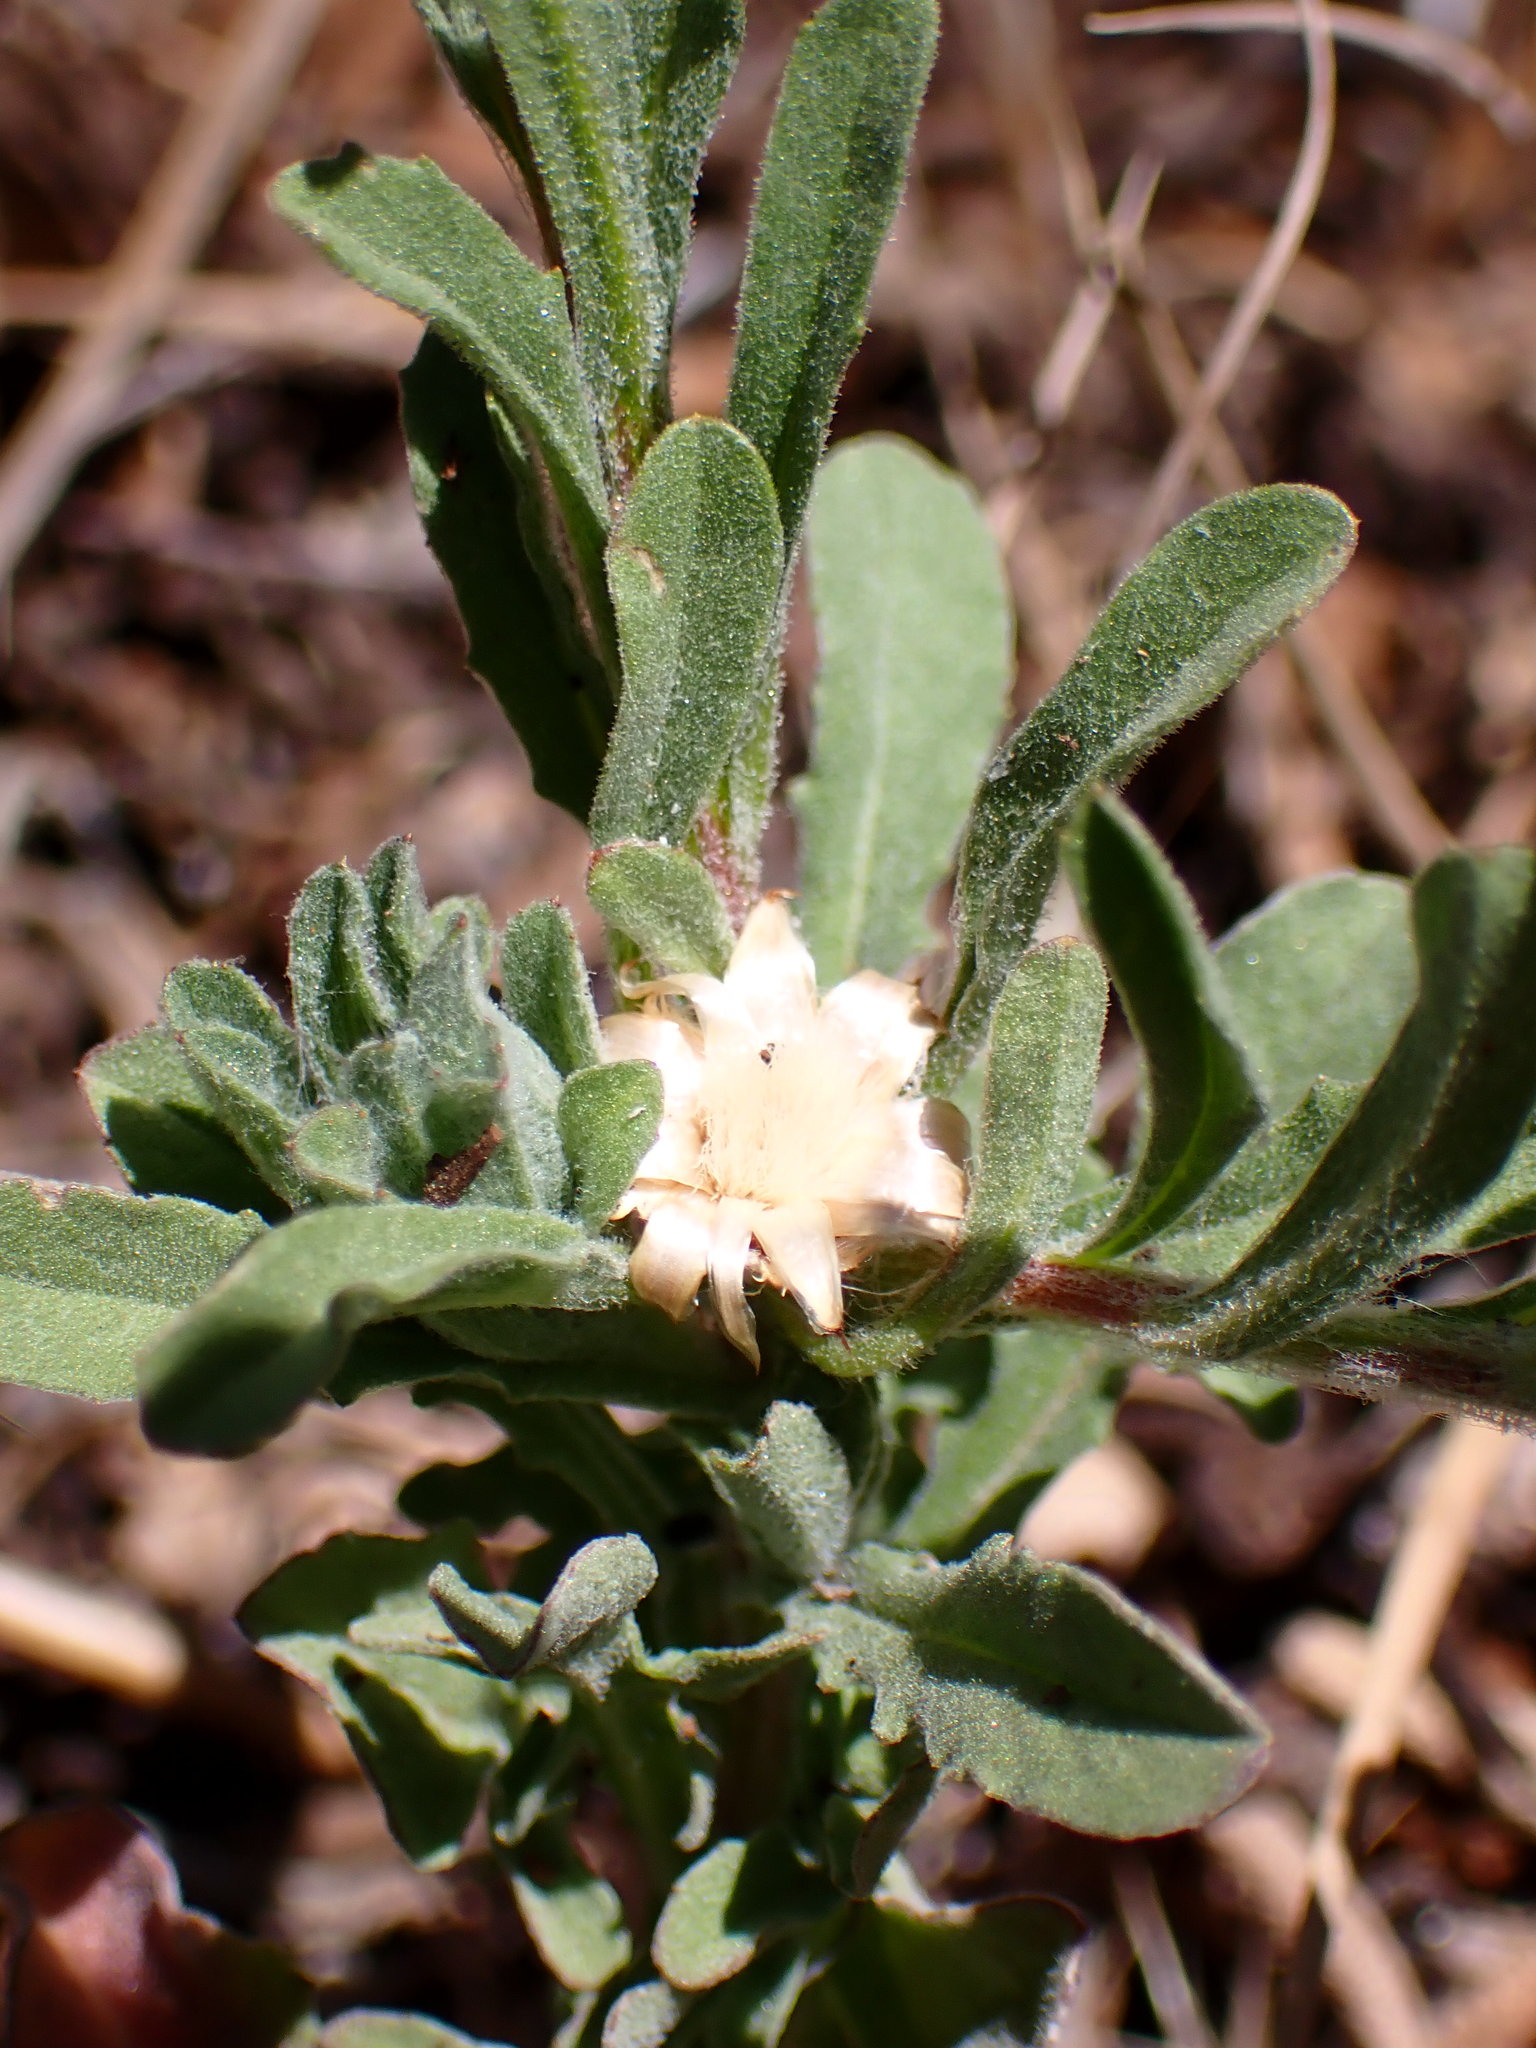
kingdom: Plantae
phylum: Tracheophyta
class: Magnoliopsida
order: Asterales
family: Asteraceae
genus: Centaurea
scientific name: Centaurea melitensis
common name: Maltese star-thistle
